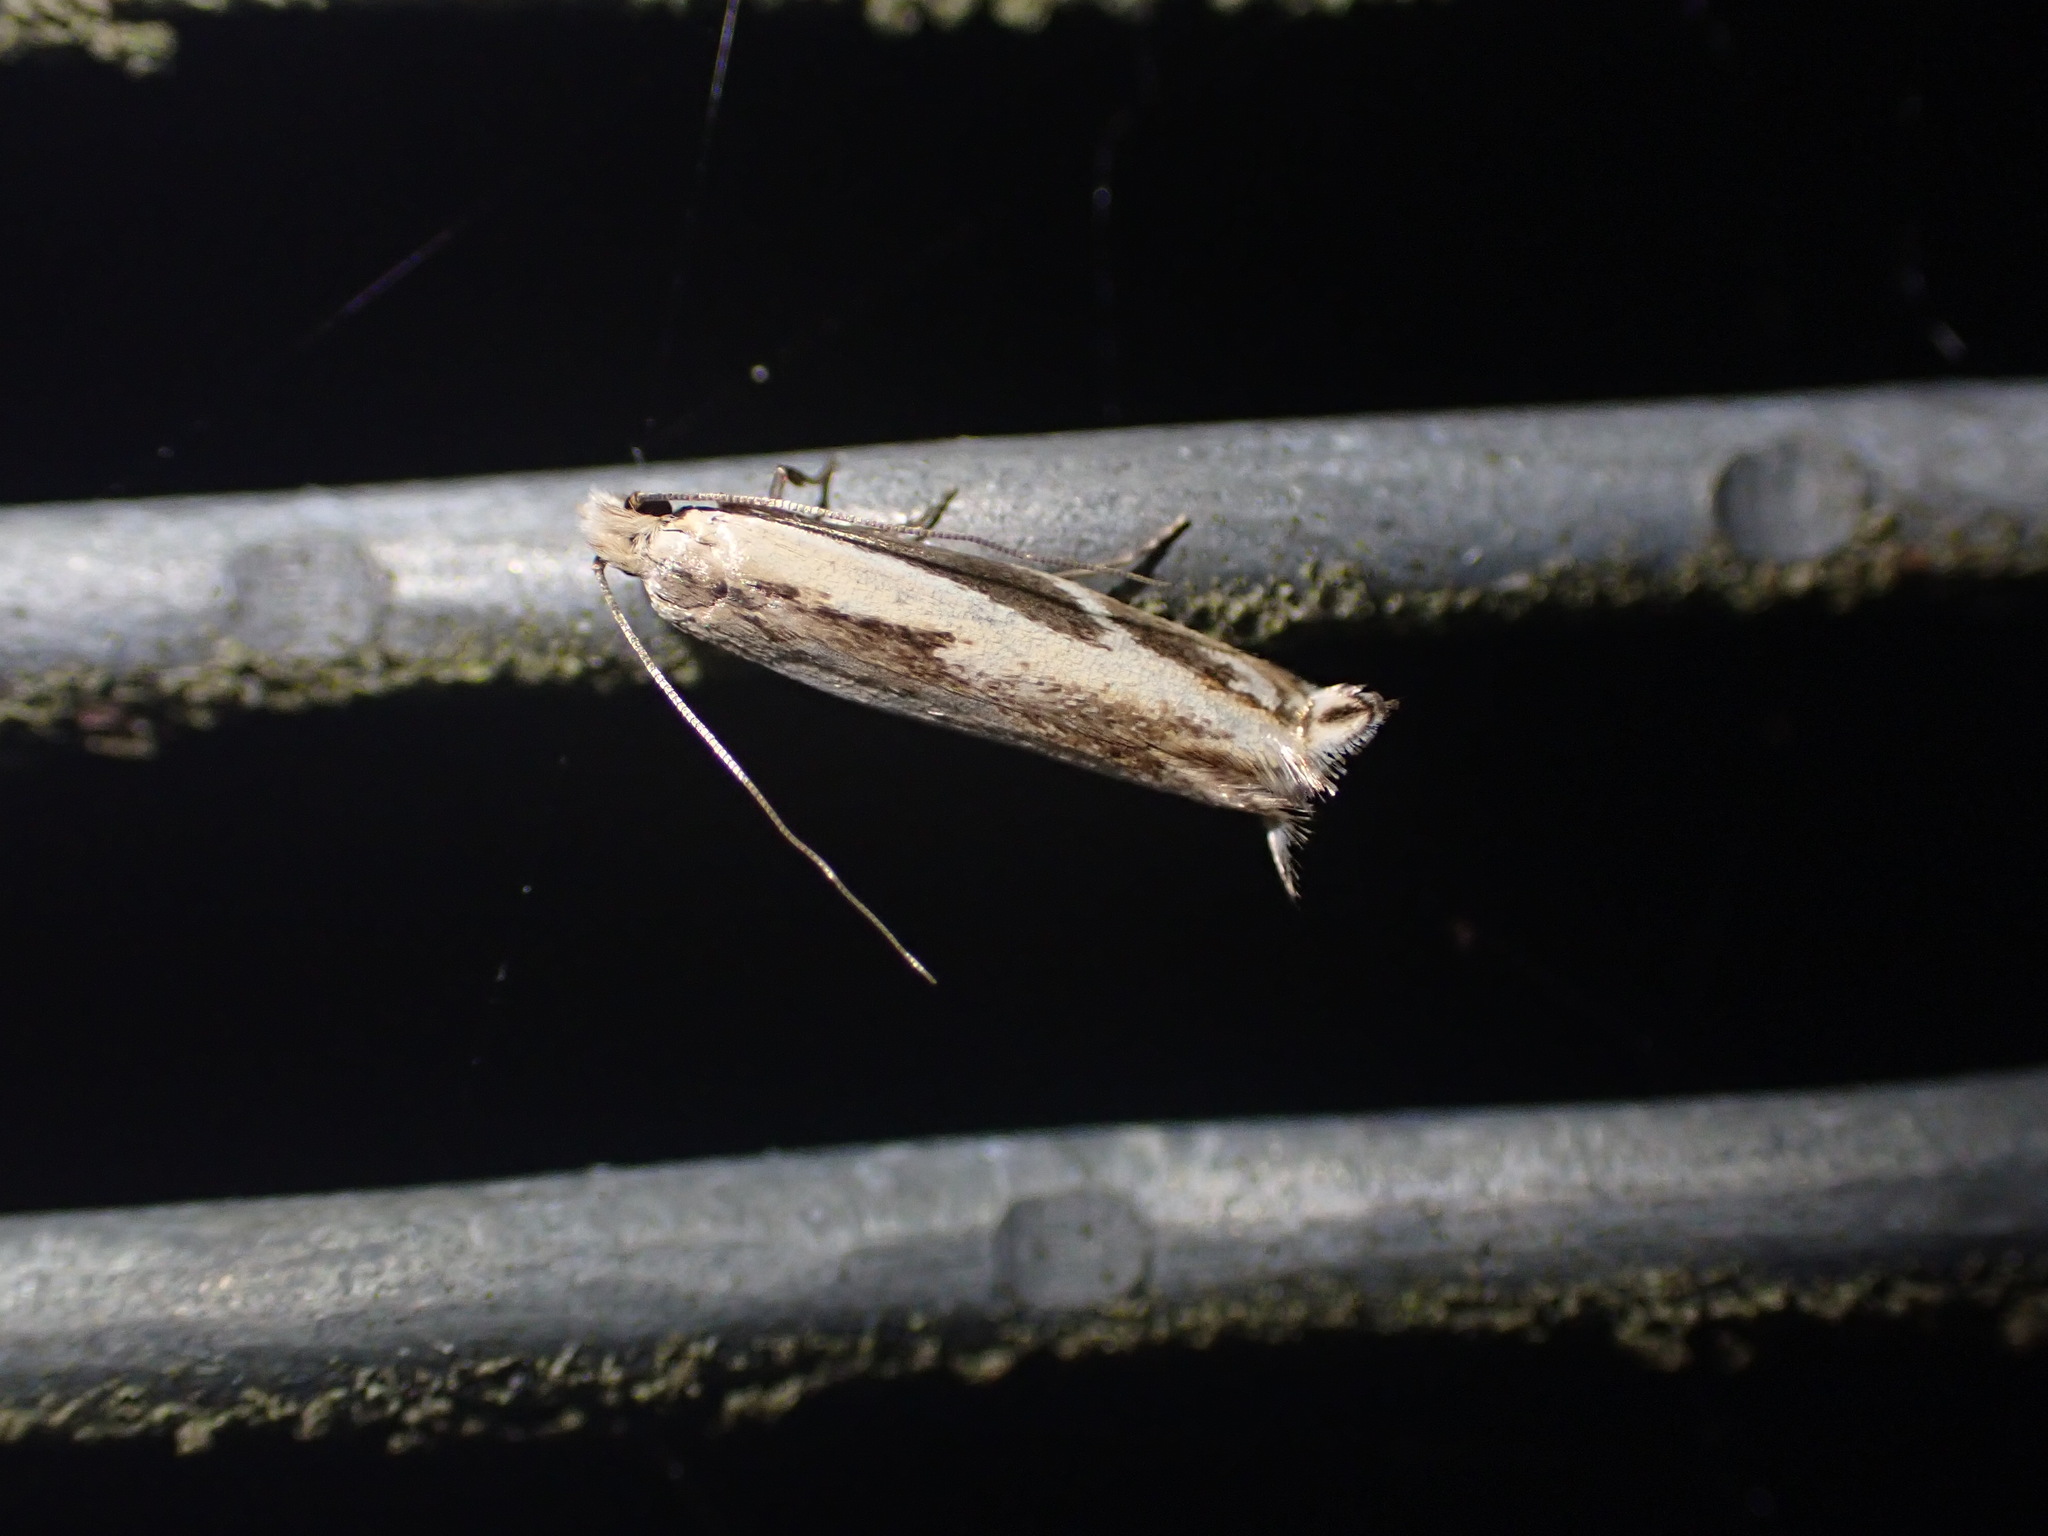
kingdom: Animalia
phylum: Arthropoda
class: Insecta
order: Lepidoptera
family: Tineidae
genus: Erechthias
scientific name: Erechthias terminella
